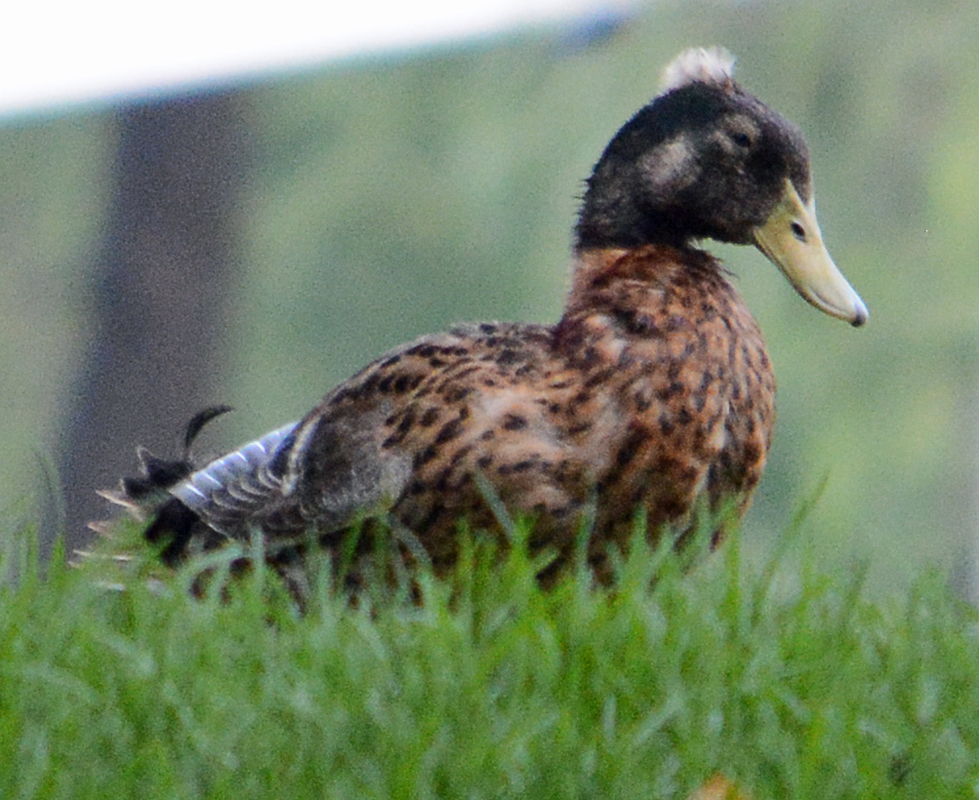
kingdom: Animalia
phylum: Chordata
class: Aves
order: Anseriformes
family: Anatidae
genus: Anas
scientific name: Anas platyrhynchos
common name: Mallard
